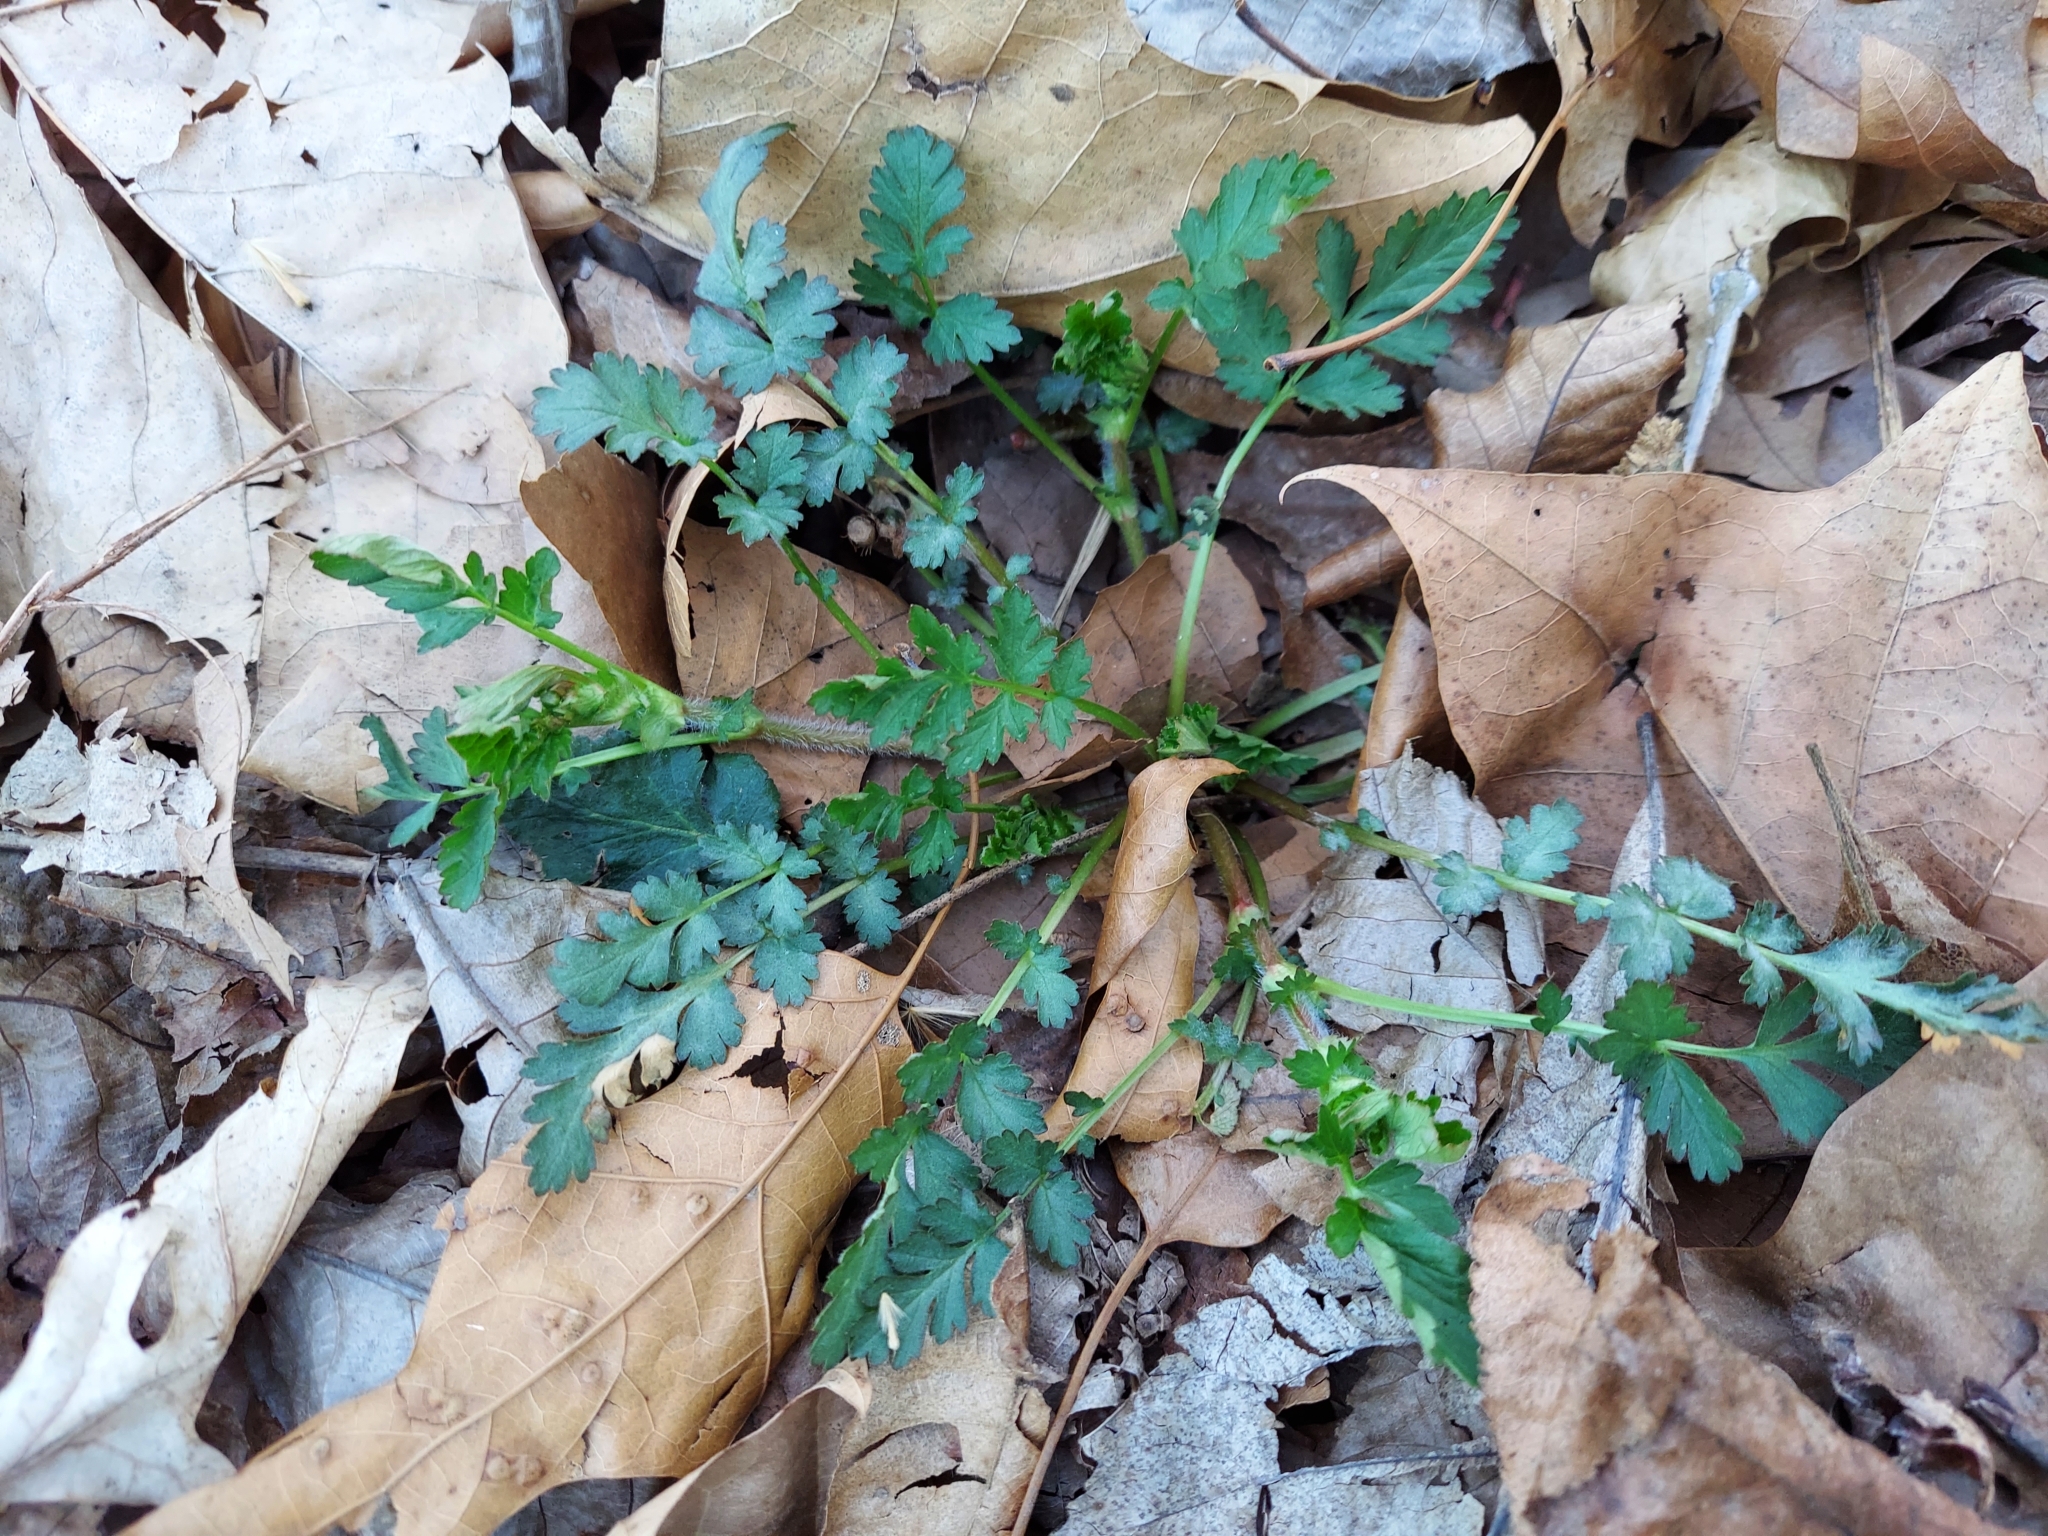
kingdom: Plantae
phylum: Tracheophyta
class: Magnoliopsida
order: Rosales
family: Rosaceae
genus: Geum
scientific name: Geum vernum
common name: Spring avens
